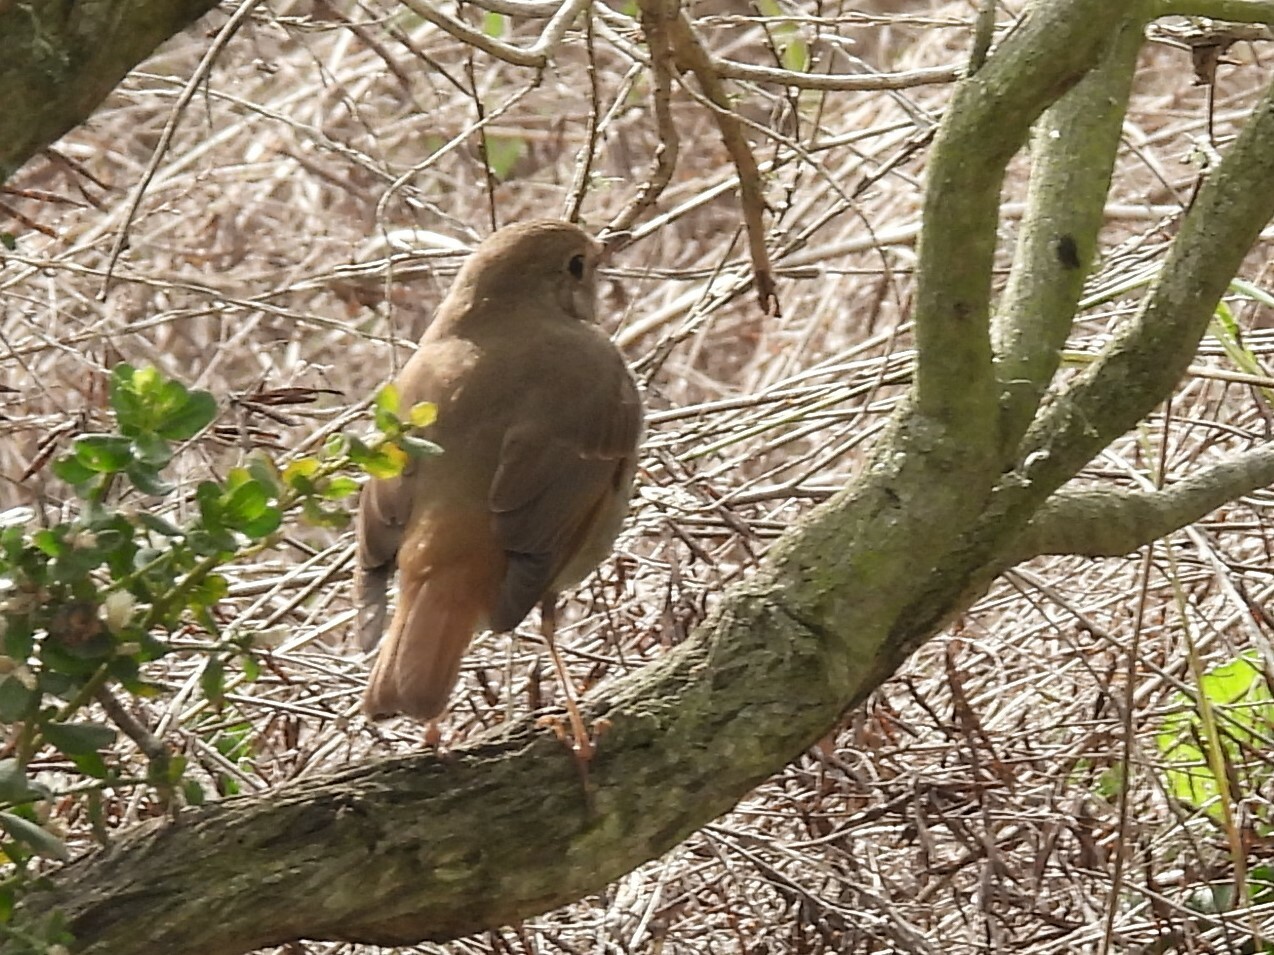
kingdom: Animalia
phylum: Chordata
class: Aves
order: Passeriformes
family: Turdidae
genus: Catharus
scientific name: Catharus guttatus
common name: Hermit thrush
